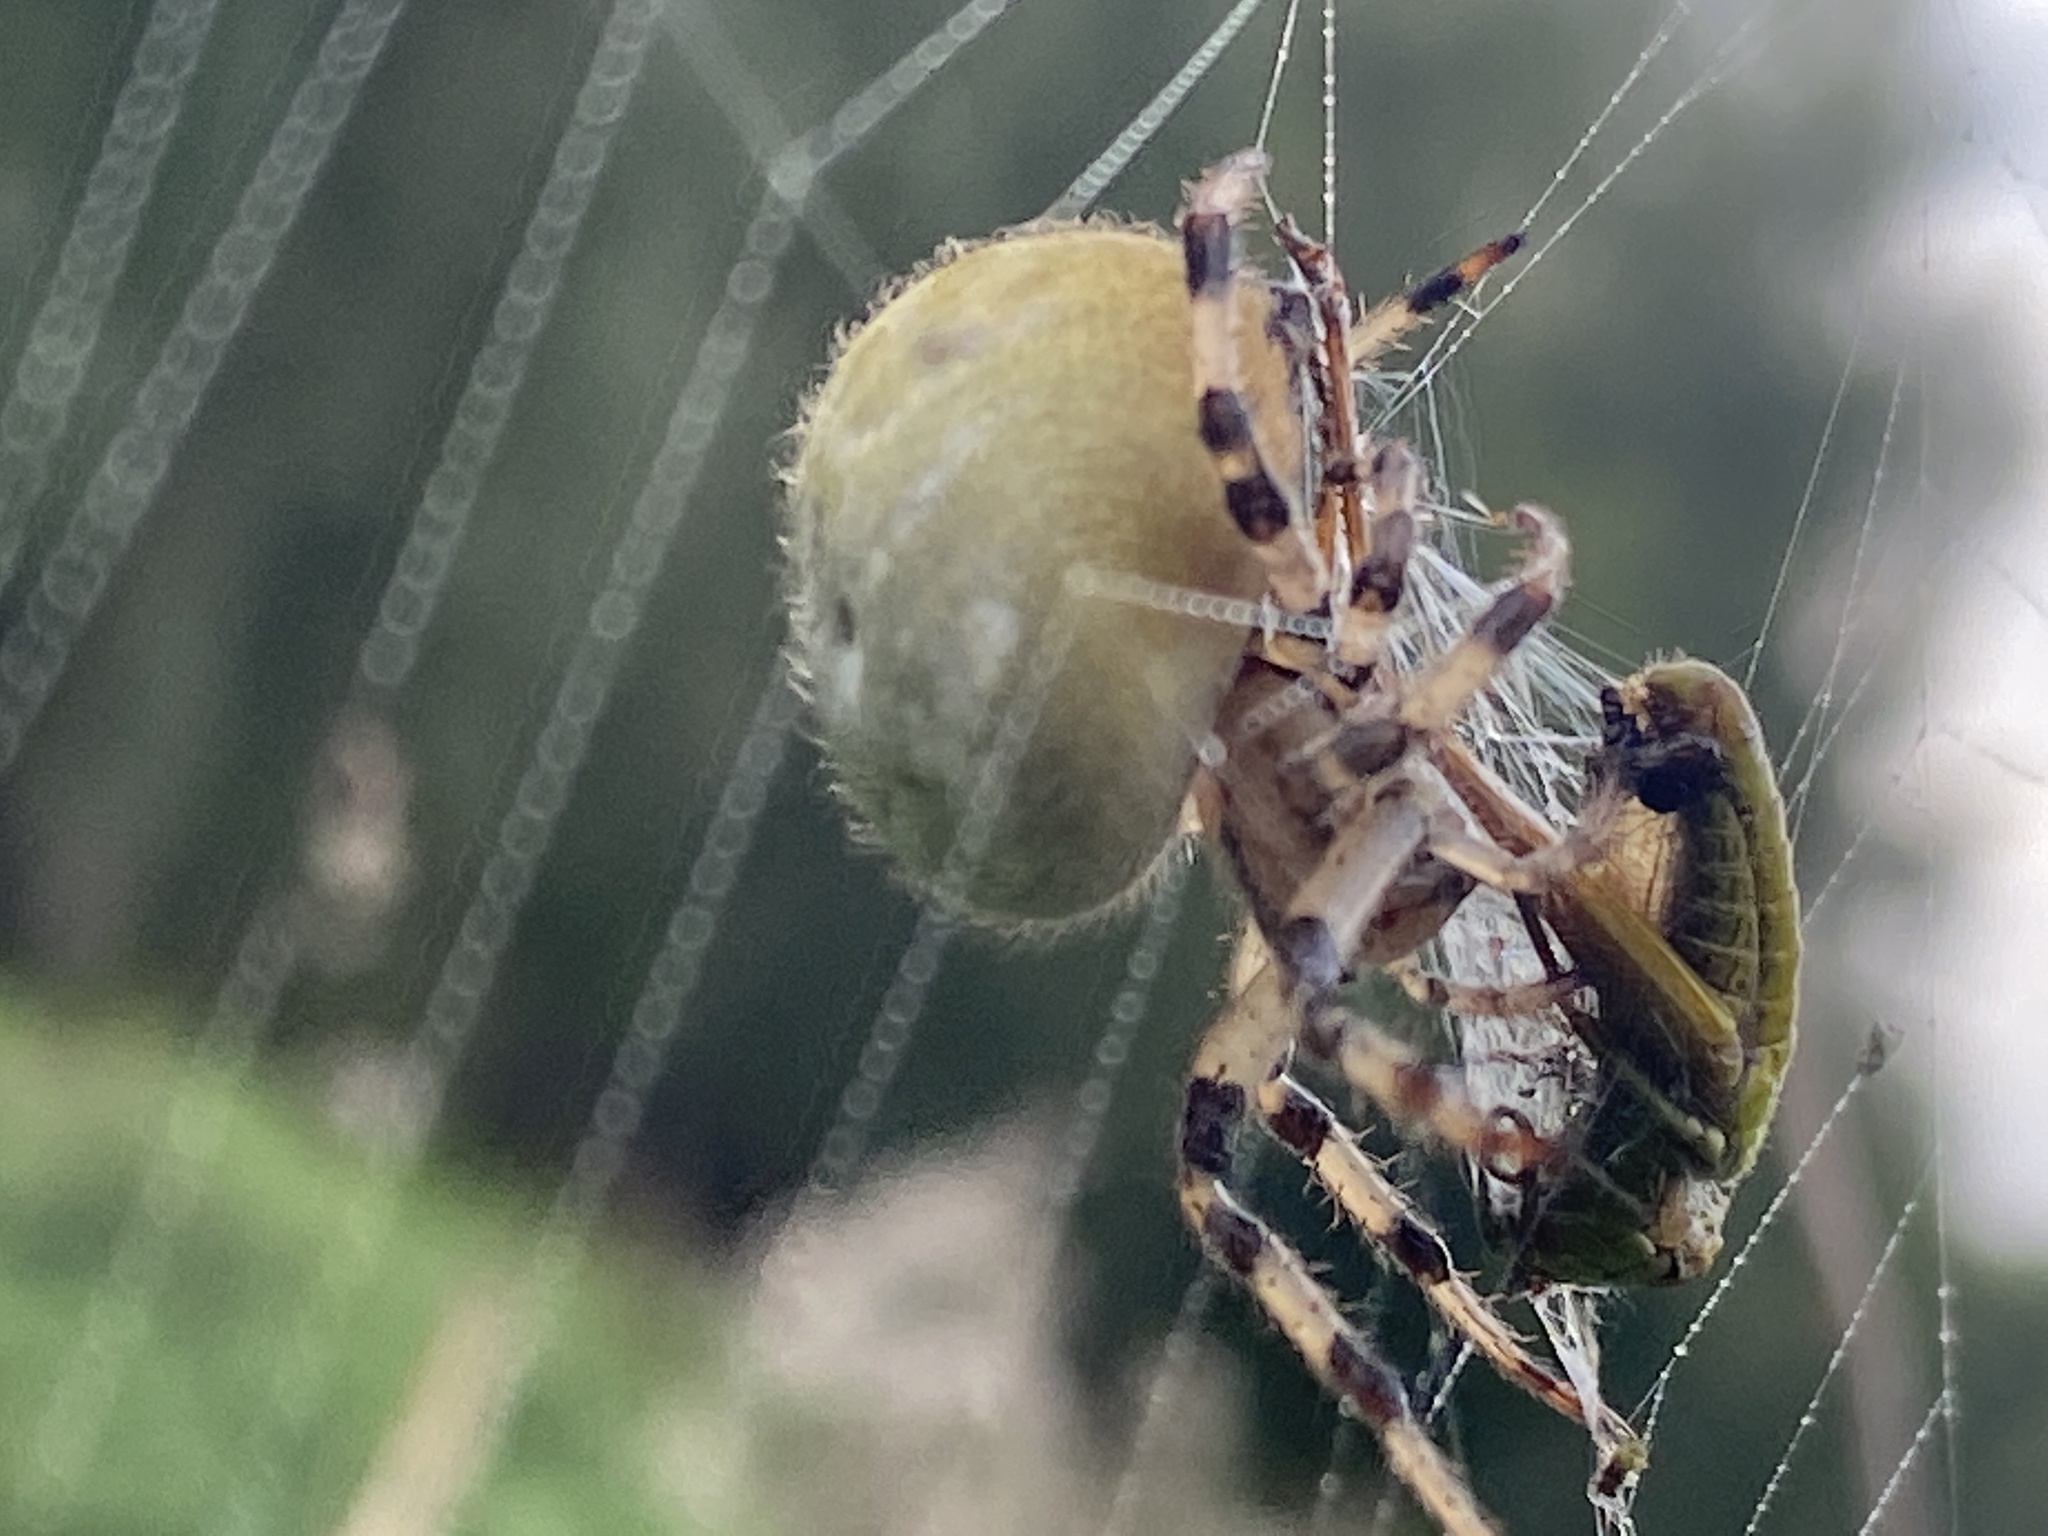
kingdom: Animalia
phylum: Arthropoda
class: Arachnida
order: Araneae
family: Araneidae
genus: Araneus
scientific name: Araneus quadratus
